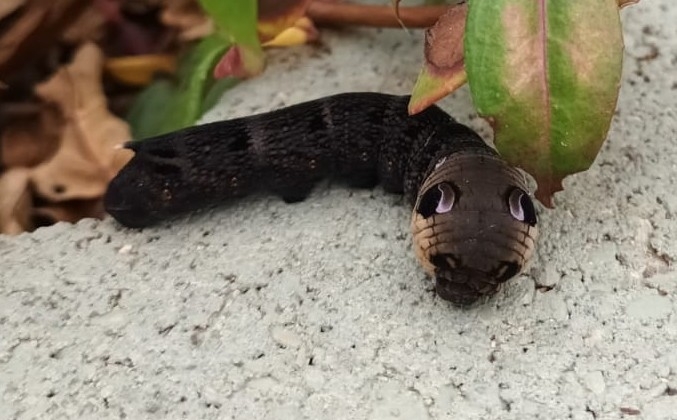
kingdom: Animalia
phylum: Arthropoda
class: Insecta
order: Lepidoptera
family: Sphingidae
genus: Deilephila
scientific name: Deilephila elpenor
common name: Elephant hawk-moth
